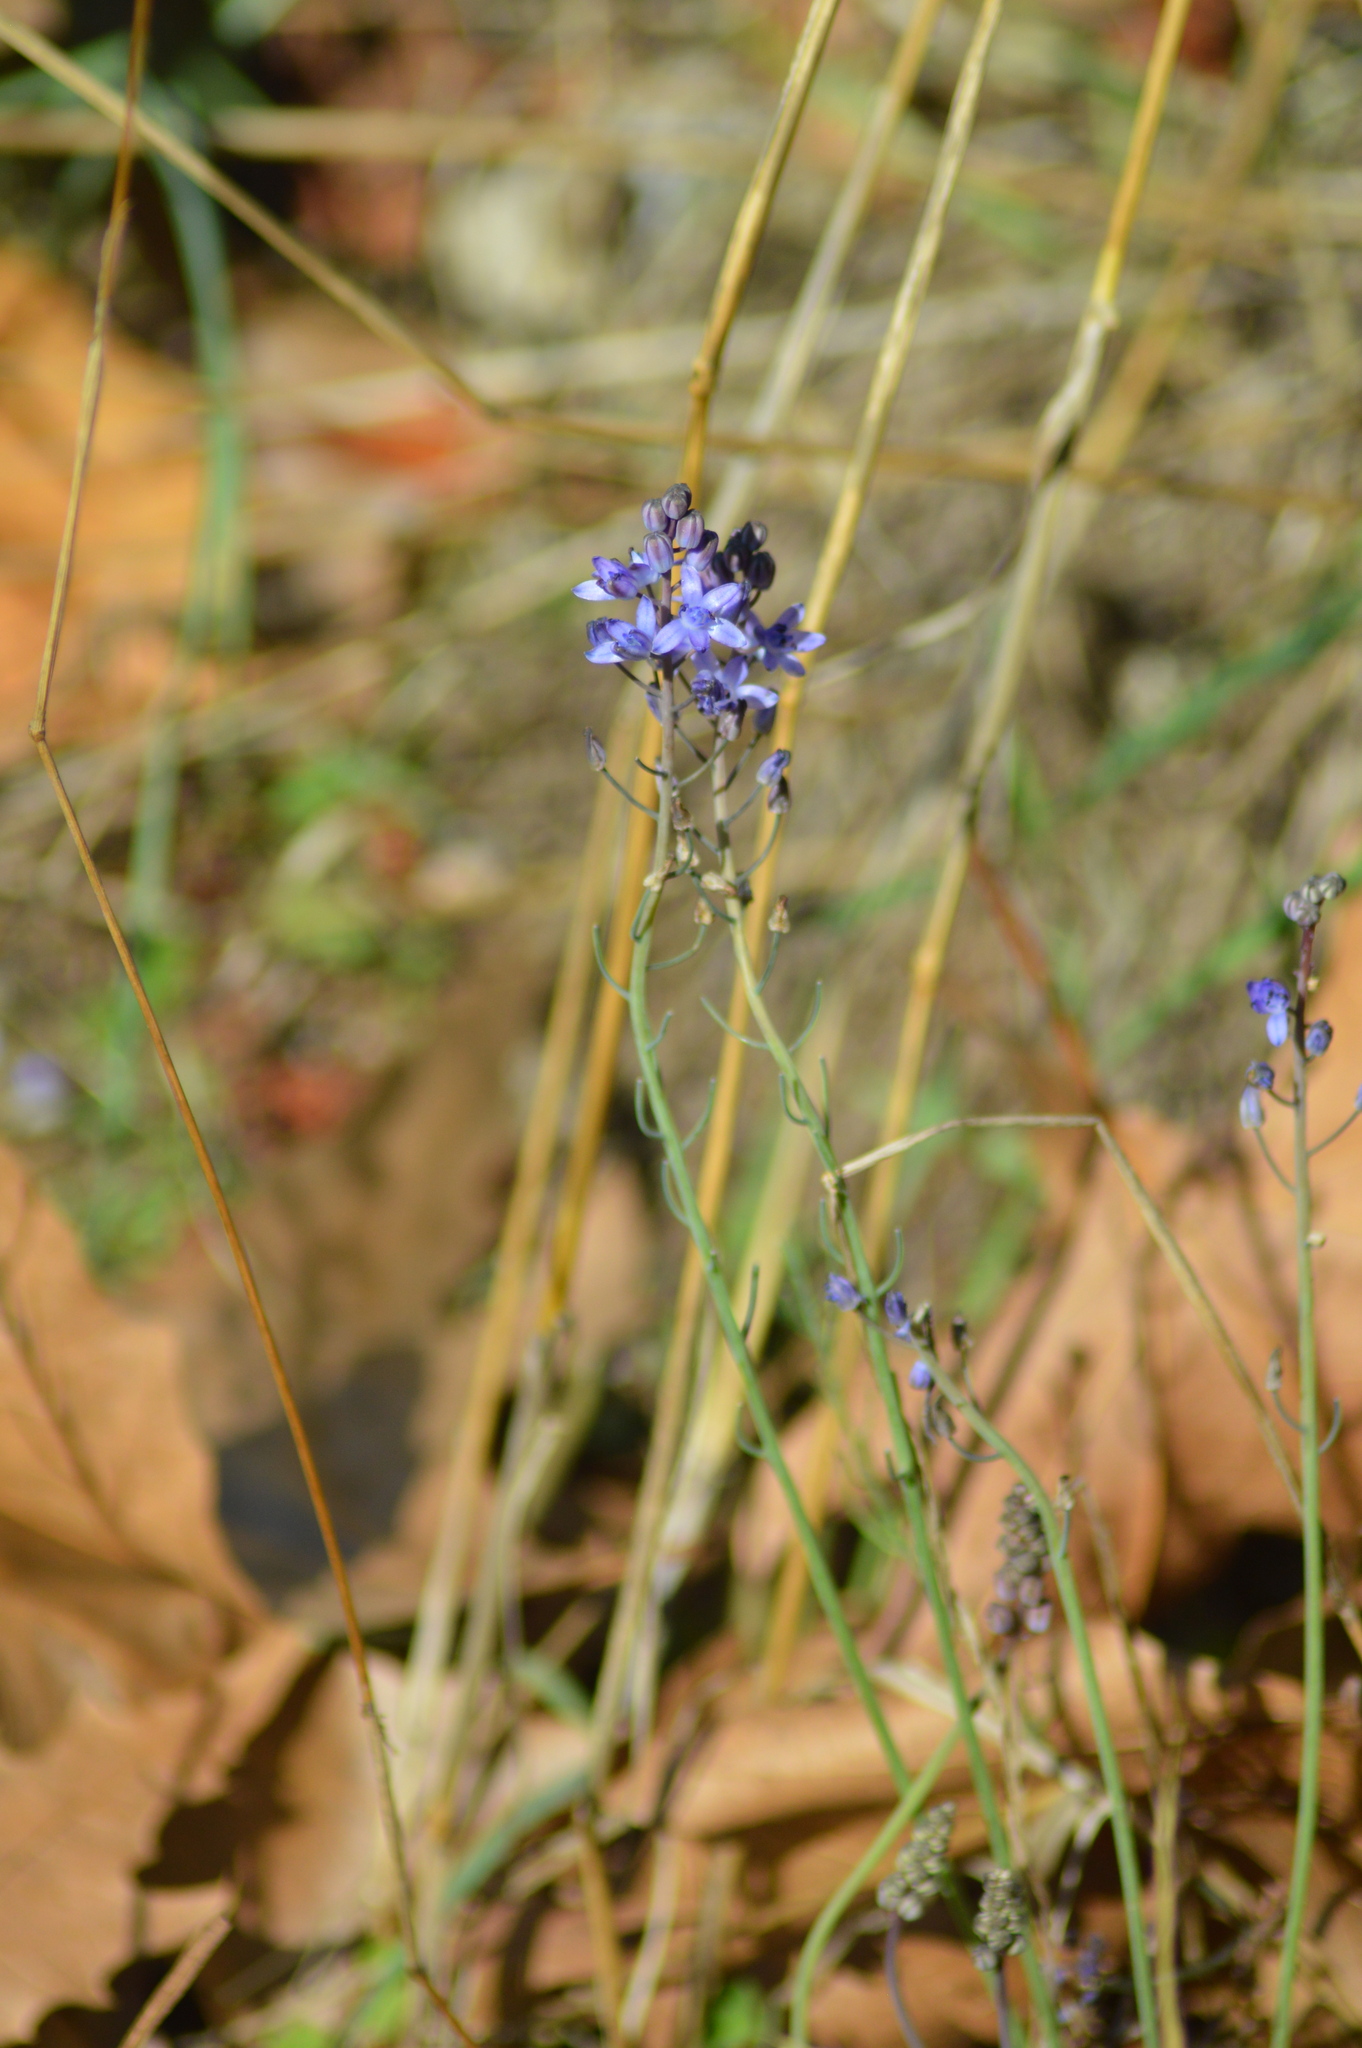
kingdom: Plantae
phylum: Tracheophyta
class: Liliopsida
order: Asparagales
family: Asparagaceae
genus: Prospero
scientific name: Prospero autumnale
